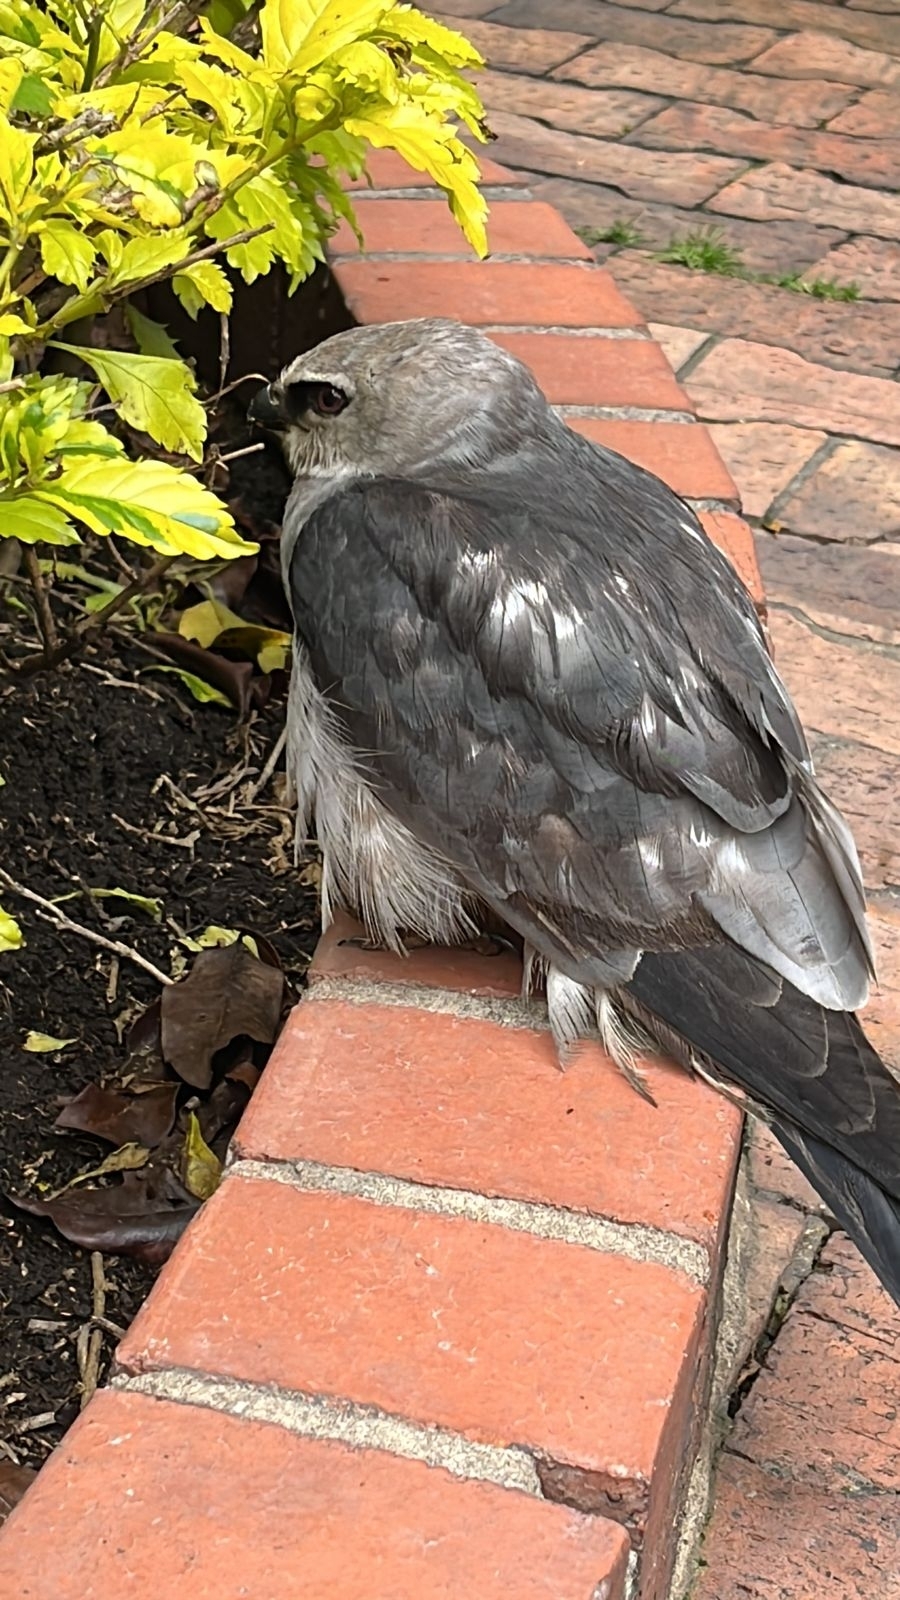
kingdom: Animalia
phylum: Chordata
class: Aves
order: Accipitriformes
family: Accipitridae
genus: Ictinia
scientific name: Ictinia mississippiensis
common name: Mississippi kite
